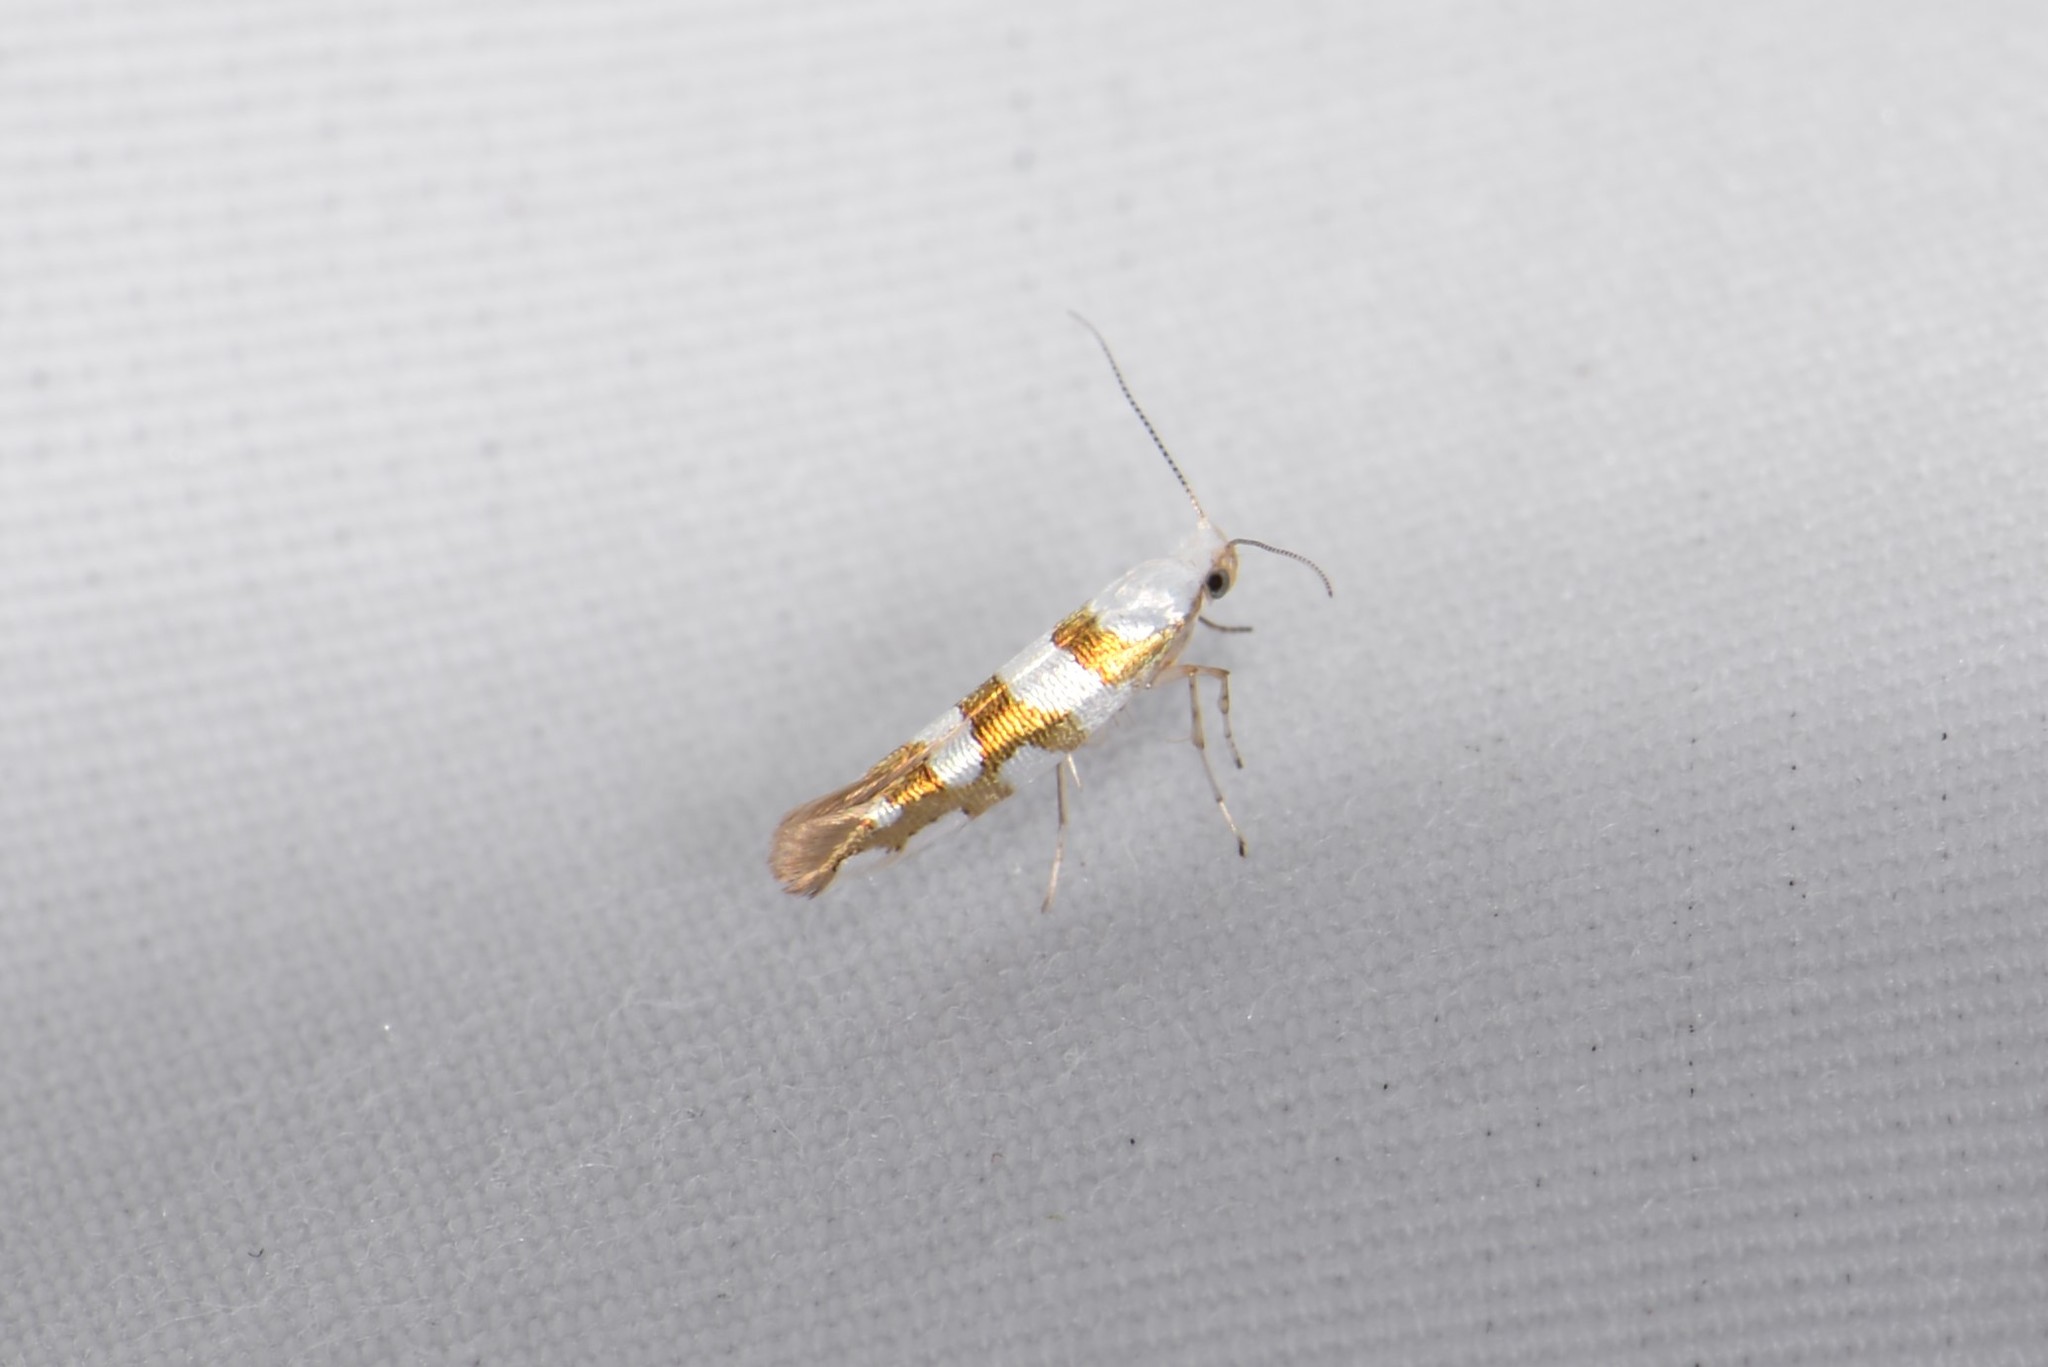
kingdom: Animalia
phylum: Arthropoda
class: Insecta
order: Lepidoptera
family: Argyresthiidae
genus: Argyresthia
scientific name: Argyresthia calliphanes
